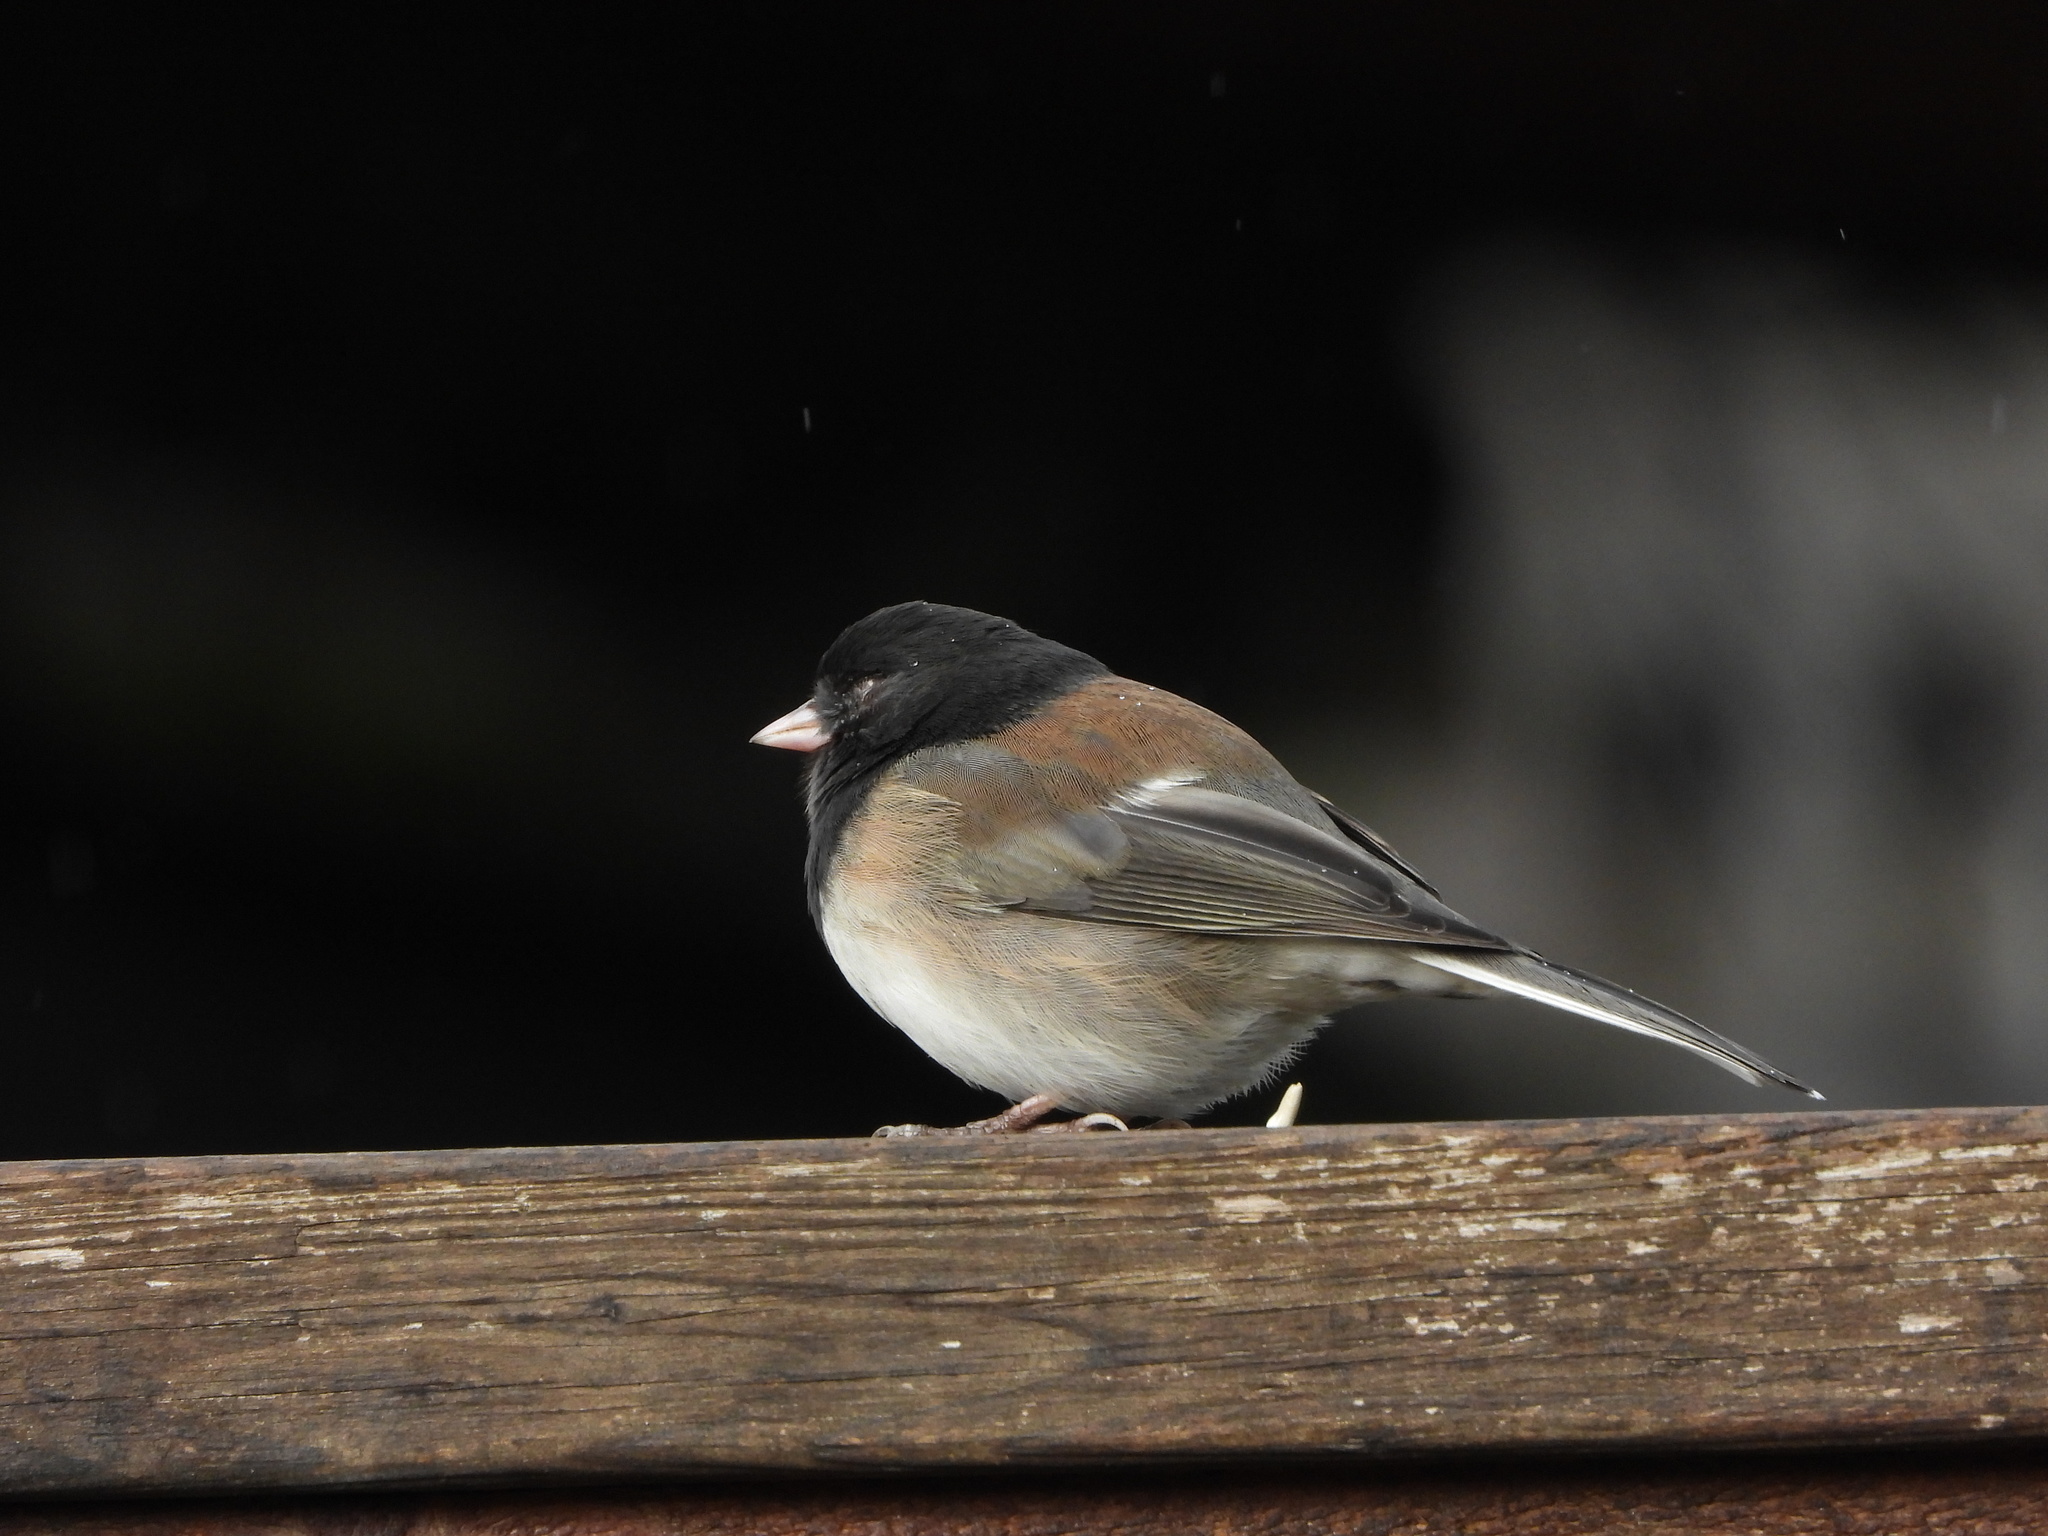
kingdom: Animalia
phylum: Chordata
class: Aves
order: Passeriformes
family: Passerellidae
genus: Junco
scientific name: Junco hyemalis
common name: Dark-eyed junco
